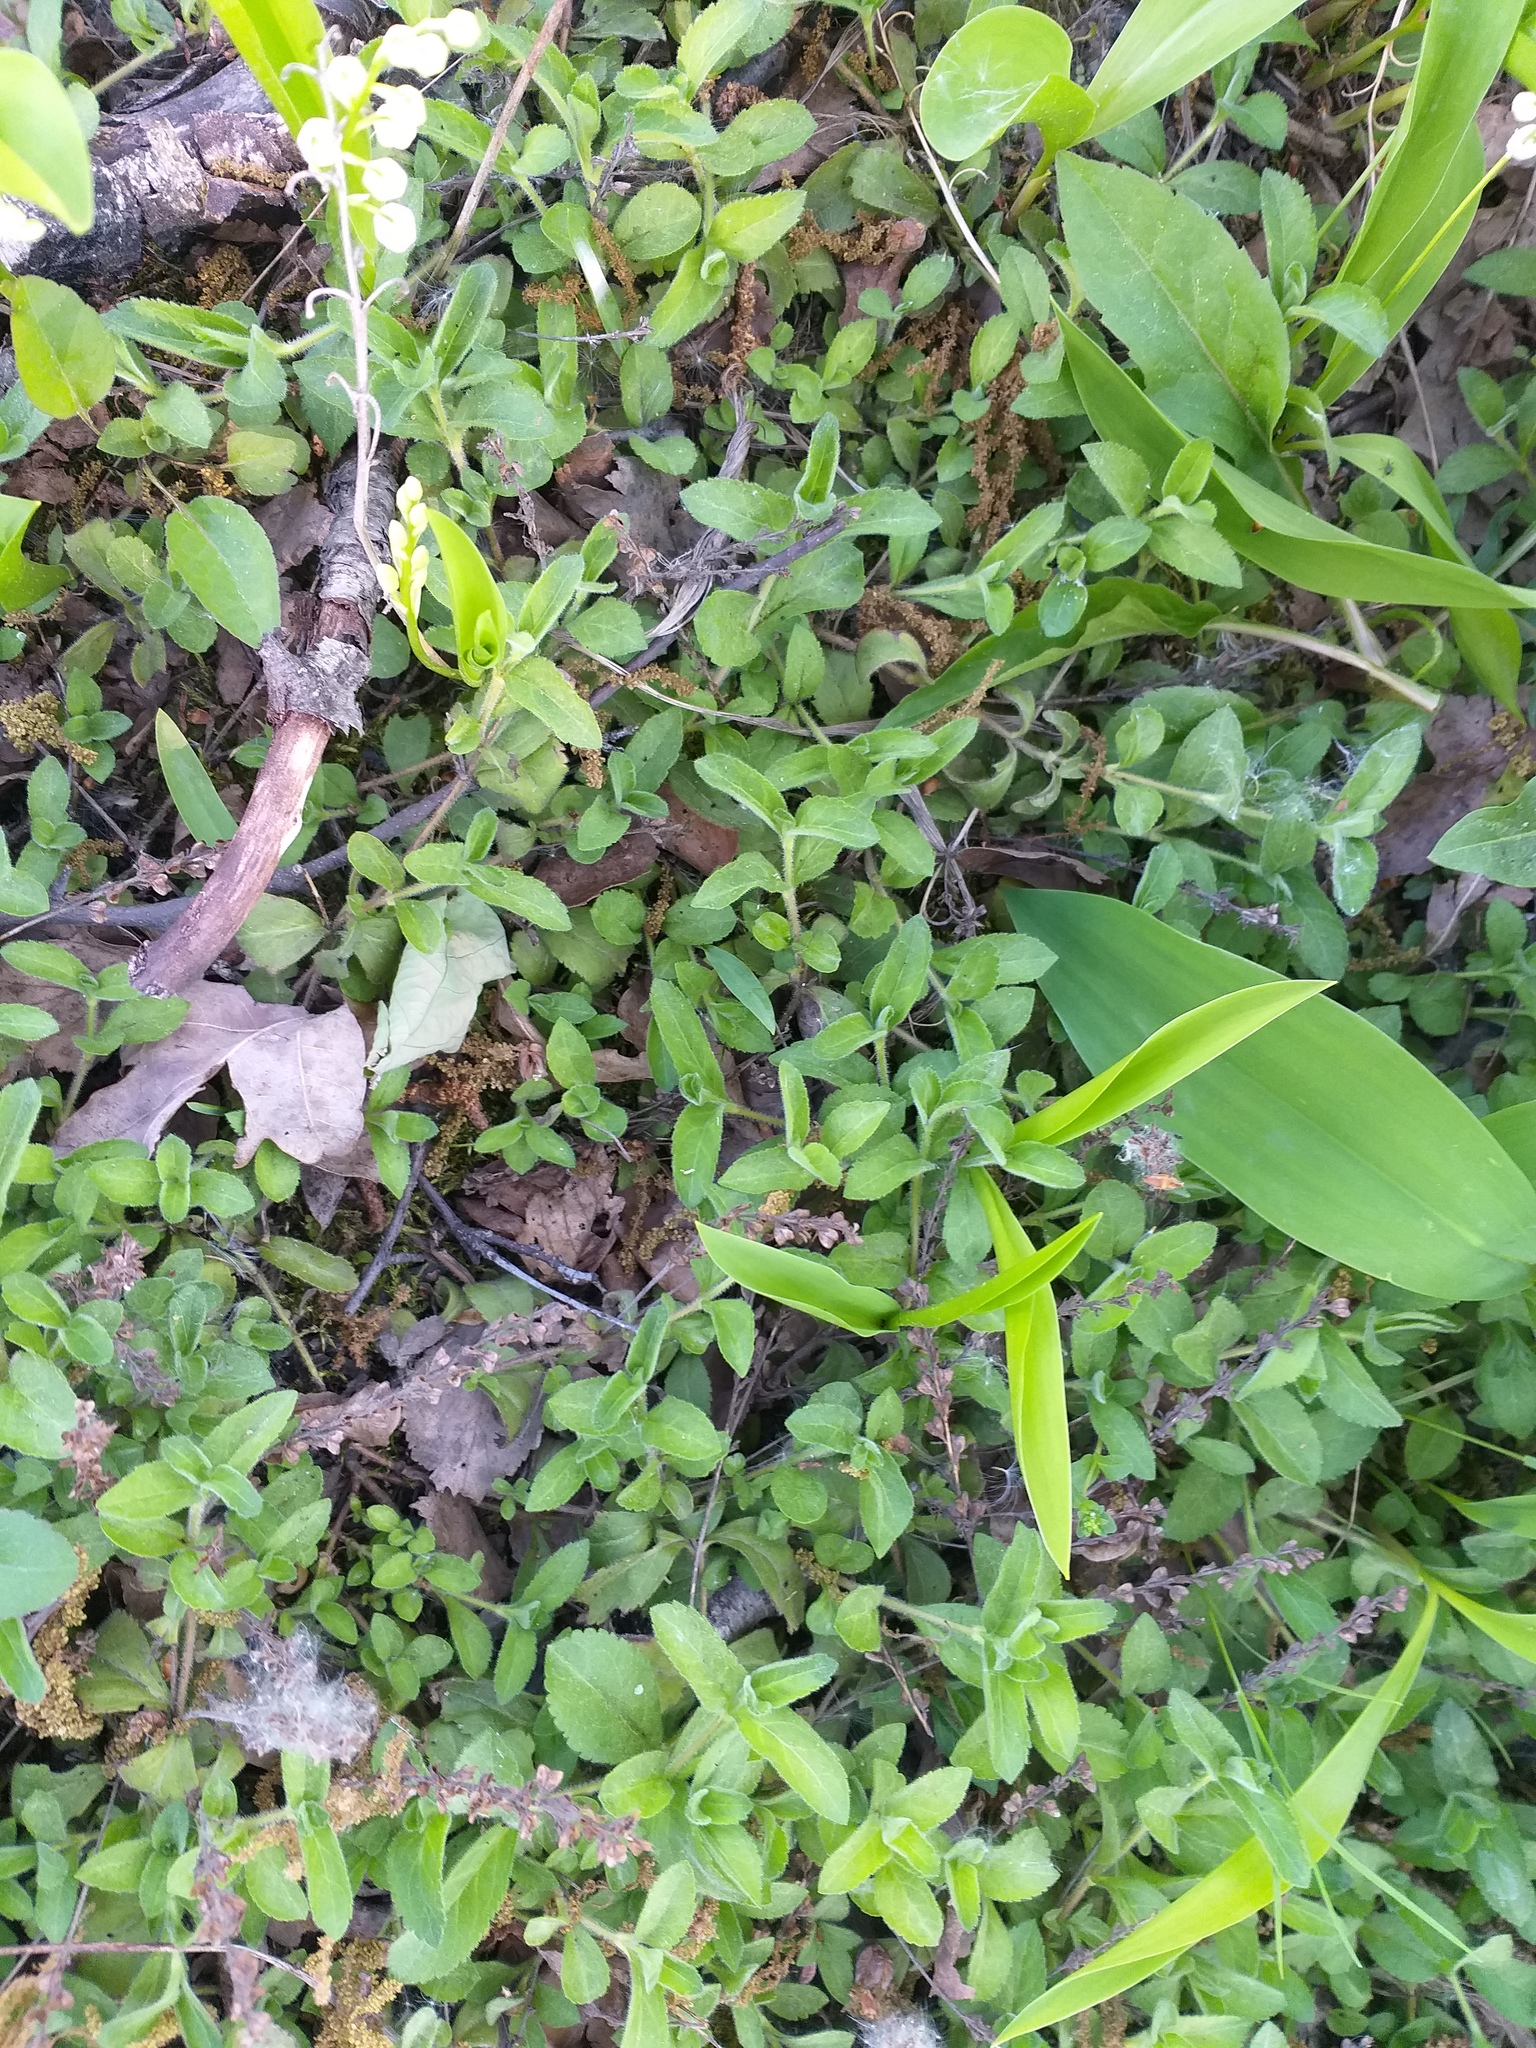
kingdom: Plantae
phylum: Tracheophyta
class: Magnoliopsida
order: Lamiales
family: Plantaginaceae
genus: Veronica
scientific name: Veronica officinalis
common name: Common speedwell
